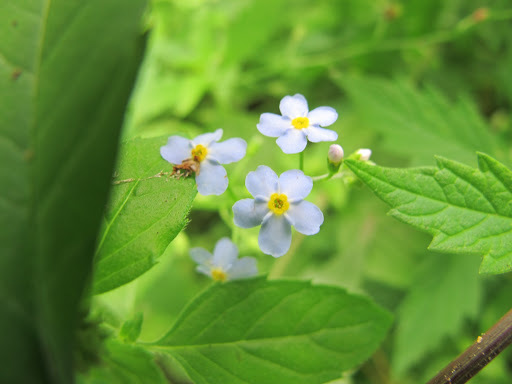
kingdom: Plantae
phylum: Tracheophyta
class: Magnoliopsida
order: Boraginales
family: Boraginaceae
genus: Myosotis
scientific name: Myosotis scorpioides
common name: Water forget-me-not
